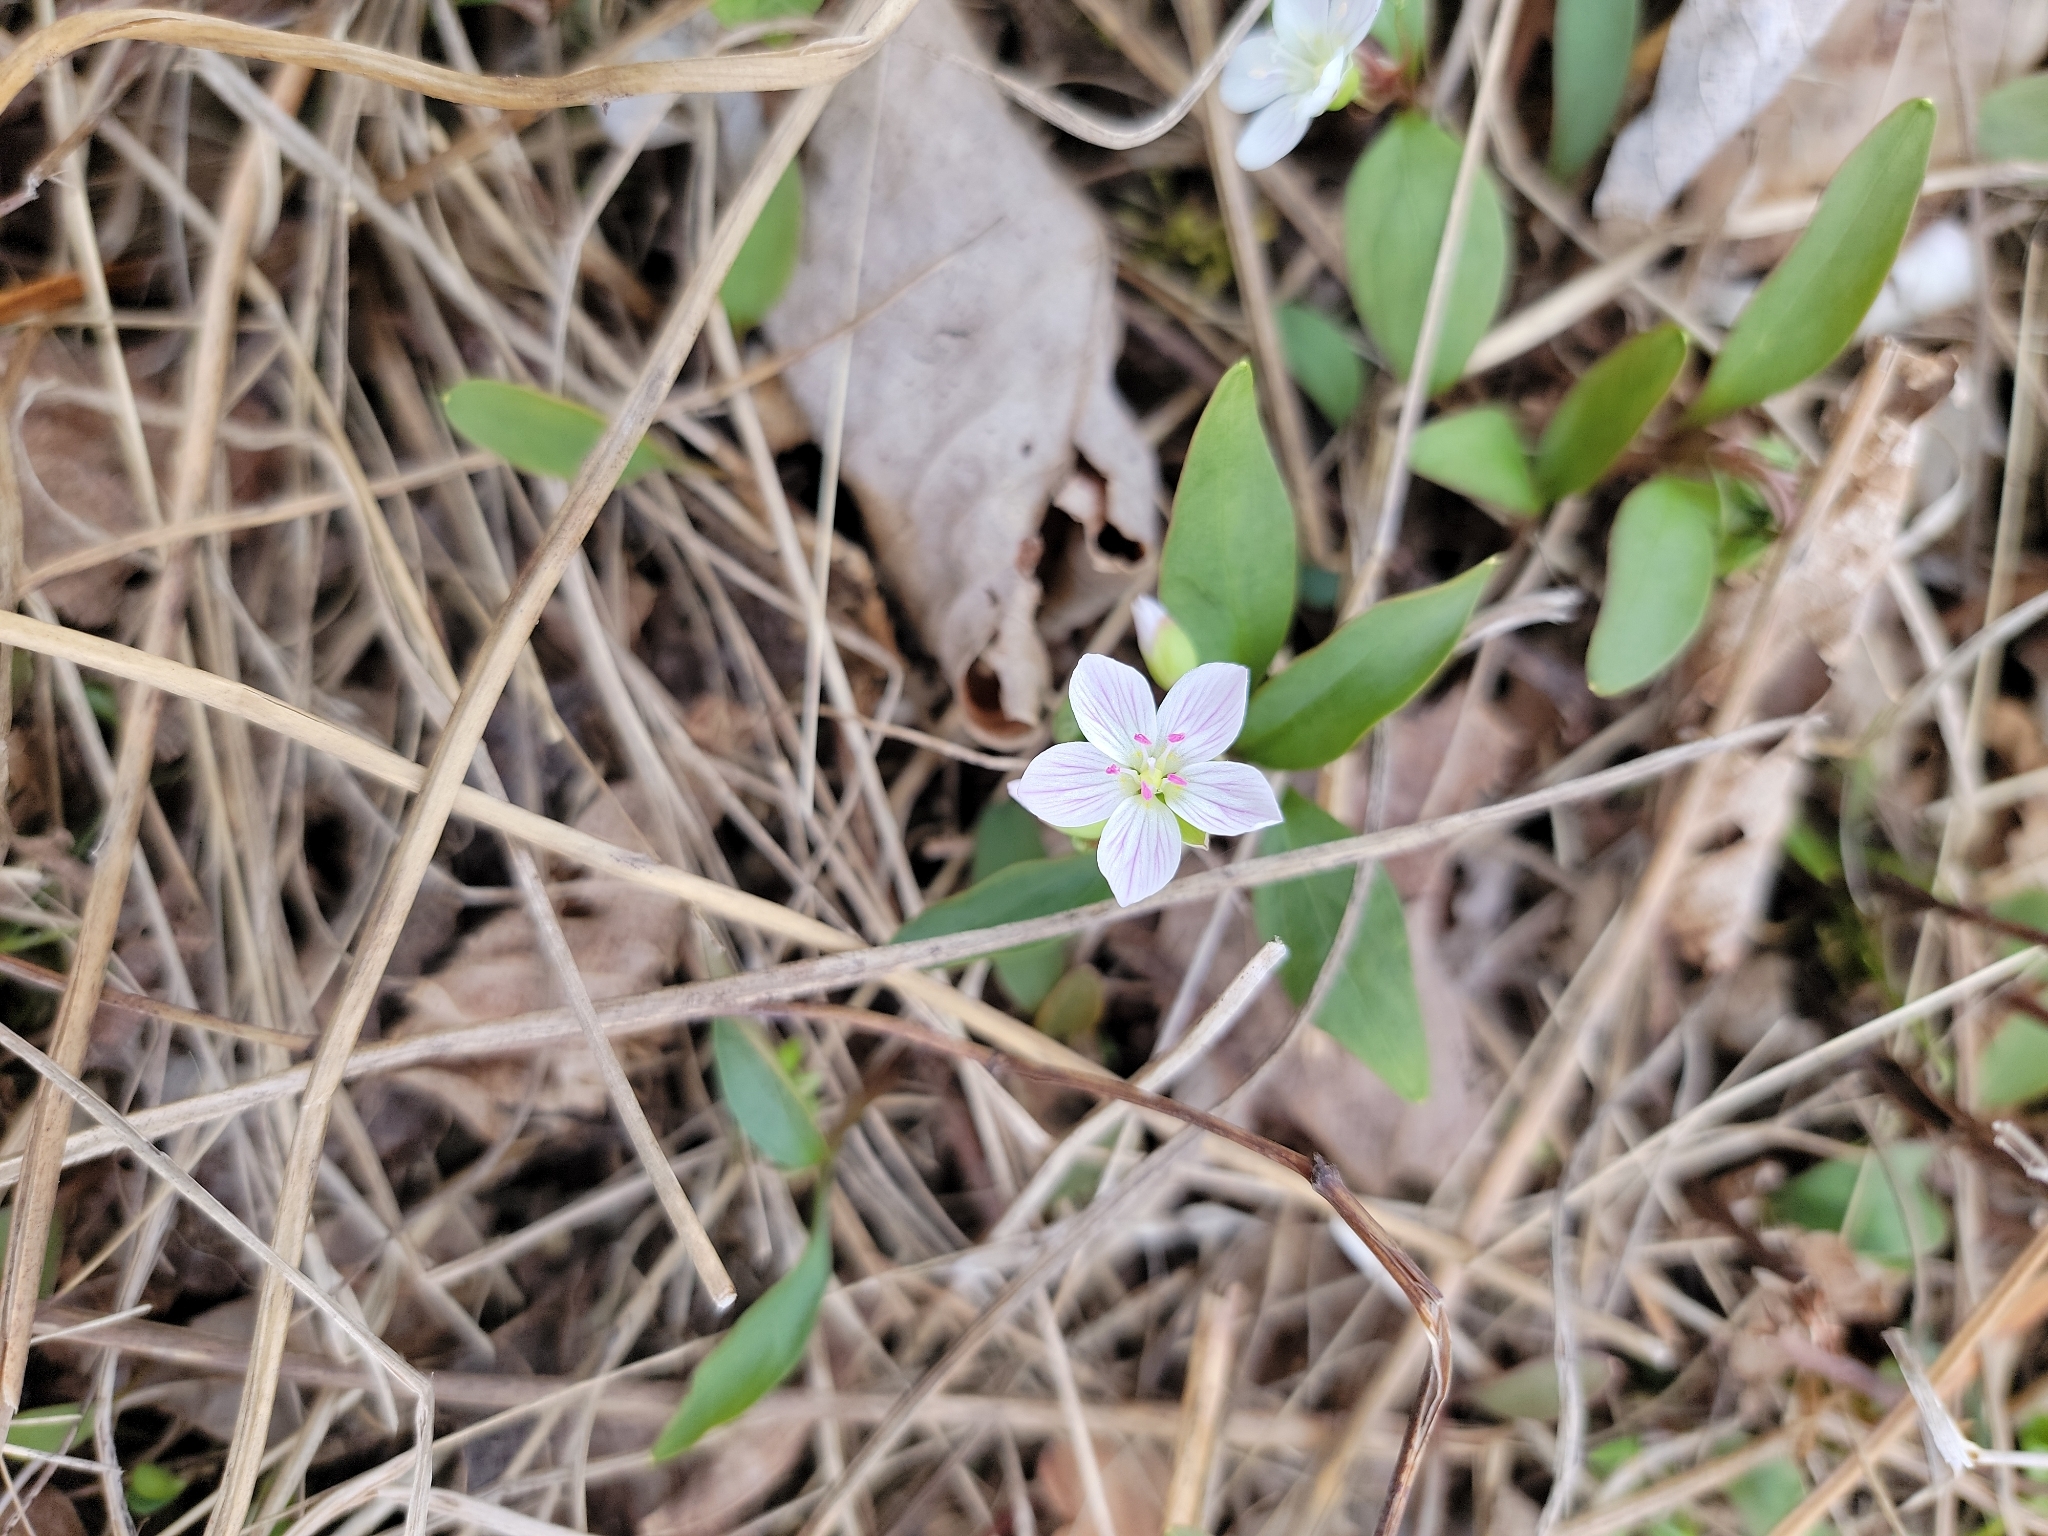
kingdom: Plantae
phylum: Tracheophyta
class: Magnoliopsida
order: Caryophyllales
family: Montiaceae
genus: Claytonia
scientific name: Claytonia caroliniana
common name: Carolina spring beauty
